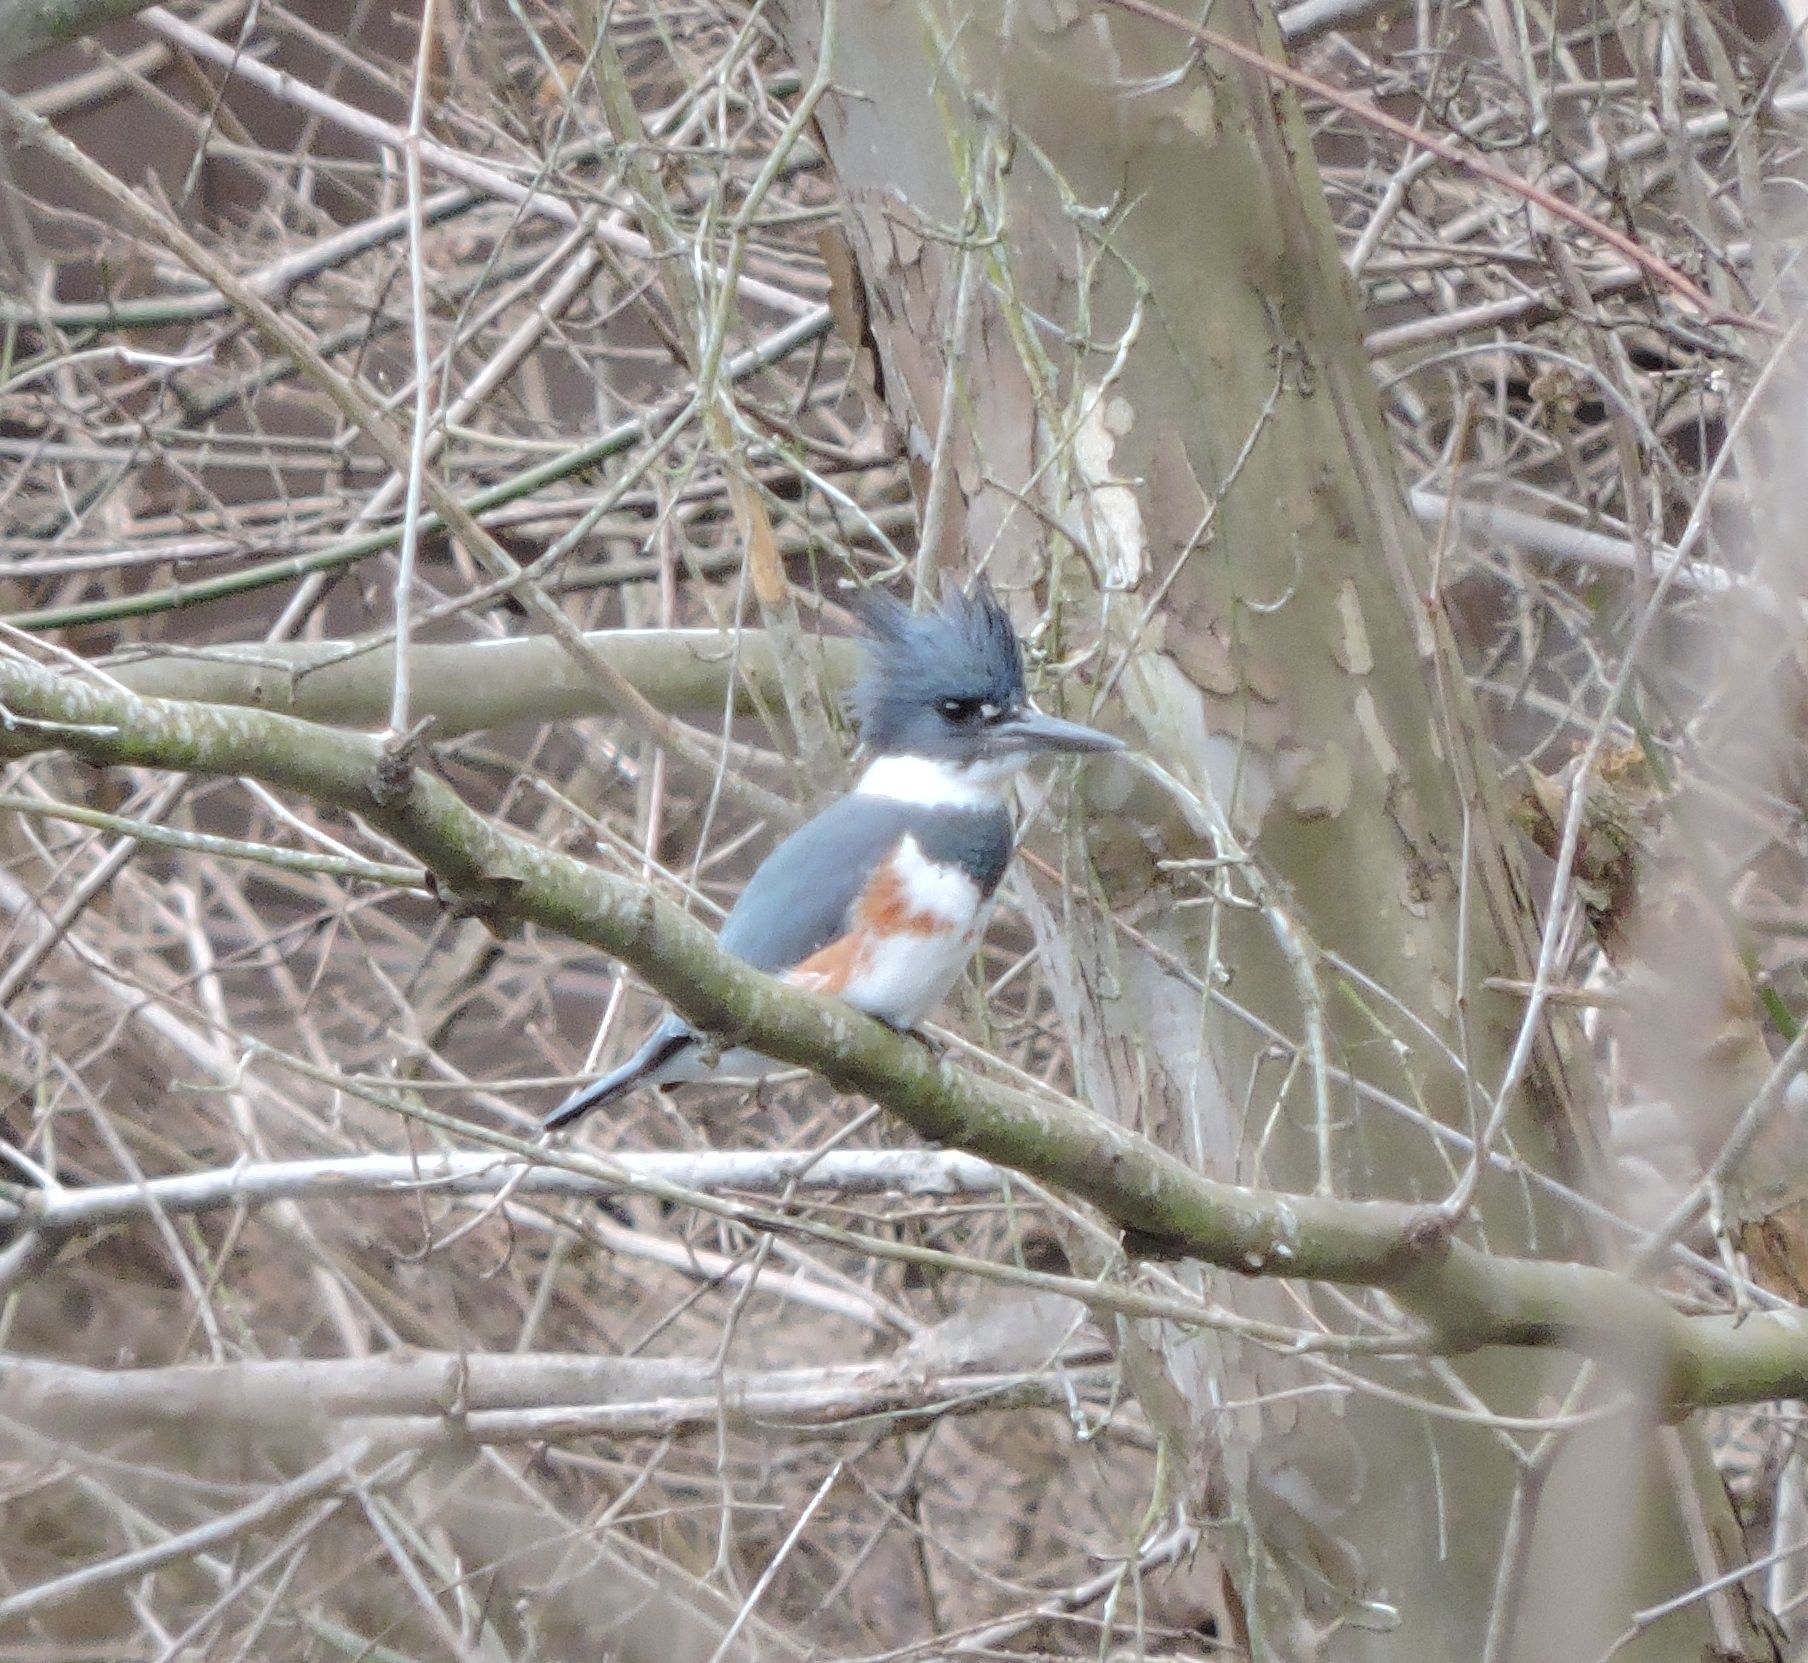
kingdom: Animalia
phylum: Chordata
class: Aves
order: Coraciiformes
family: Alcedinidae
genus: Megaceryle
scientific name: Megaceryle alcyon
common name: Belted kingfisher
